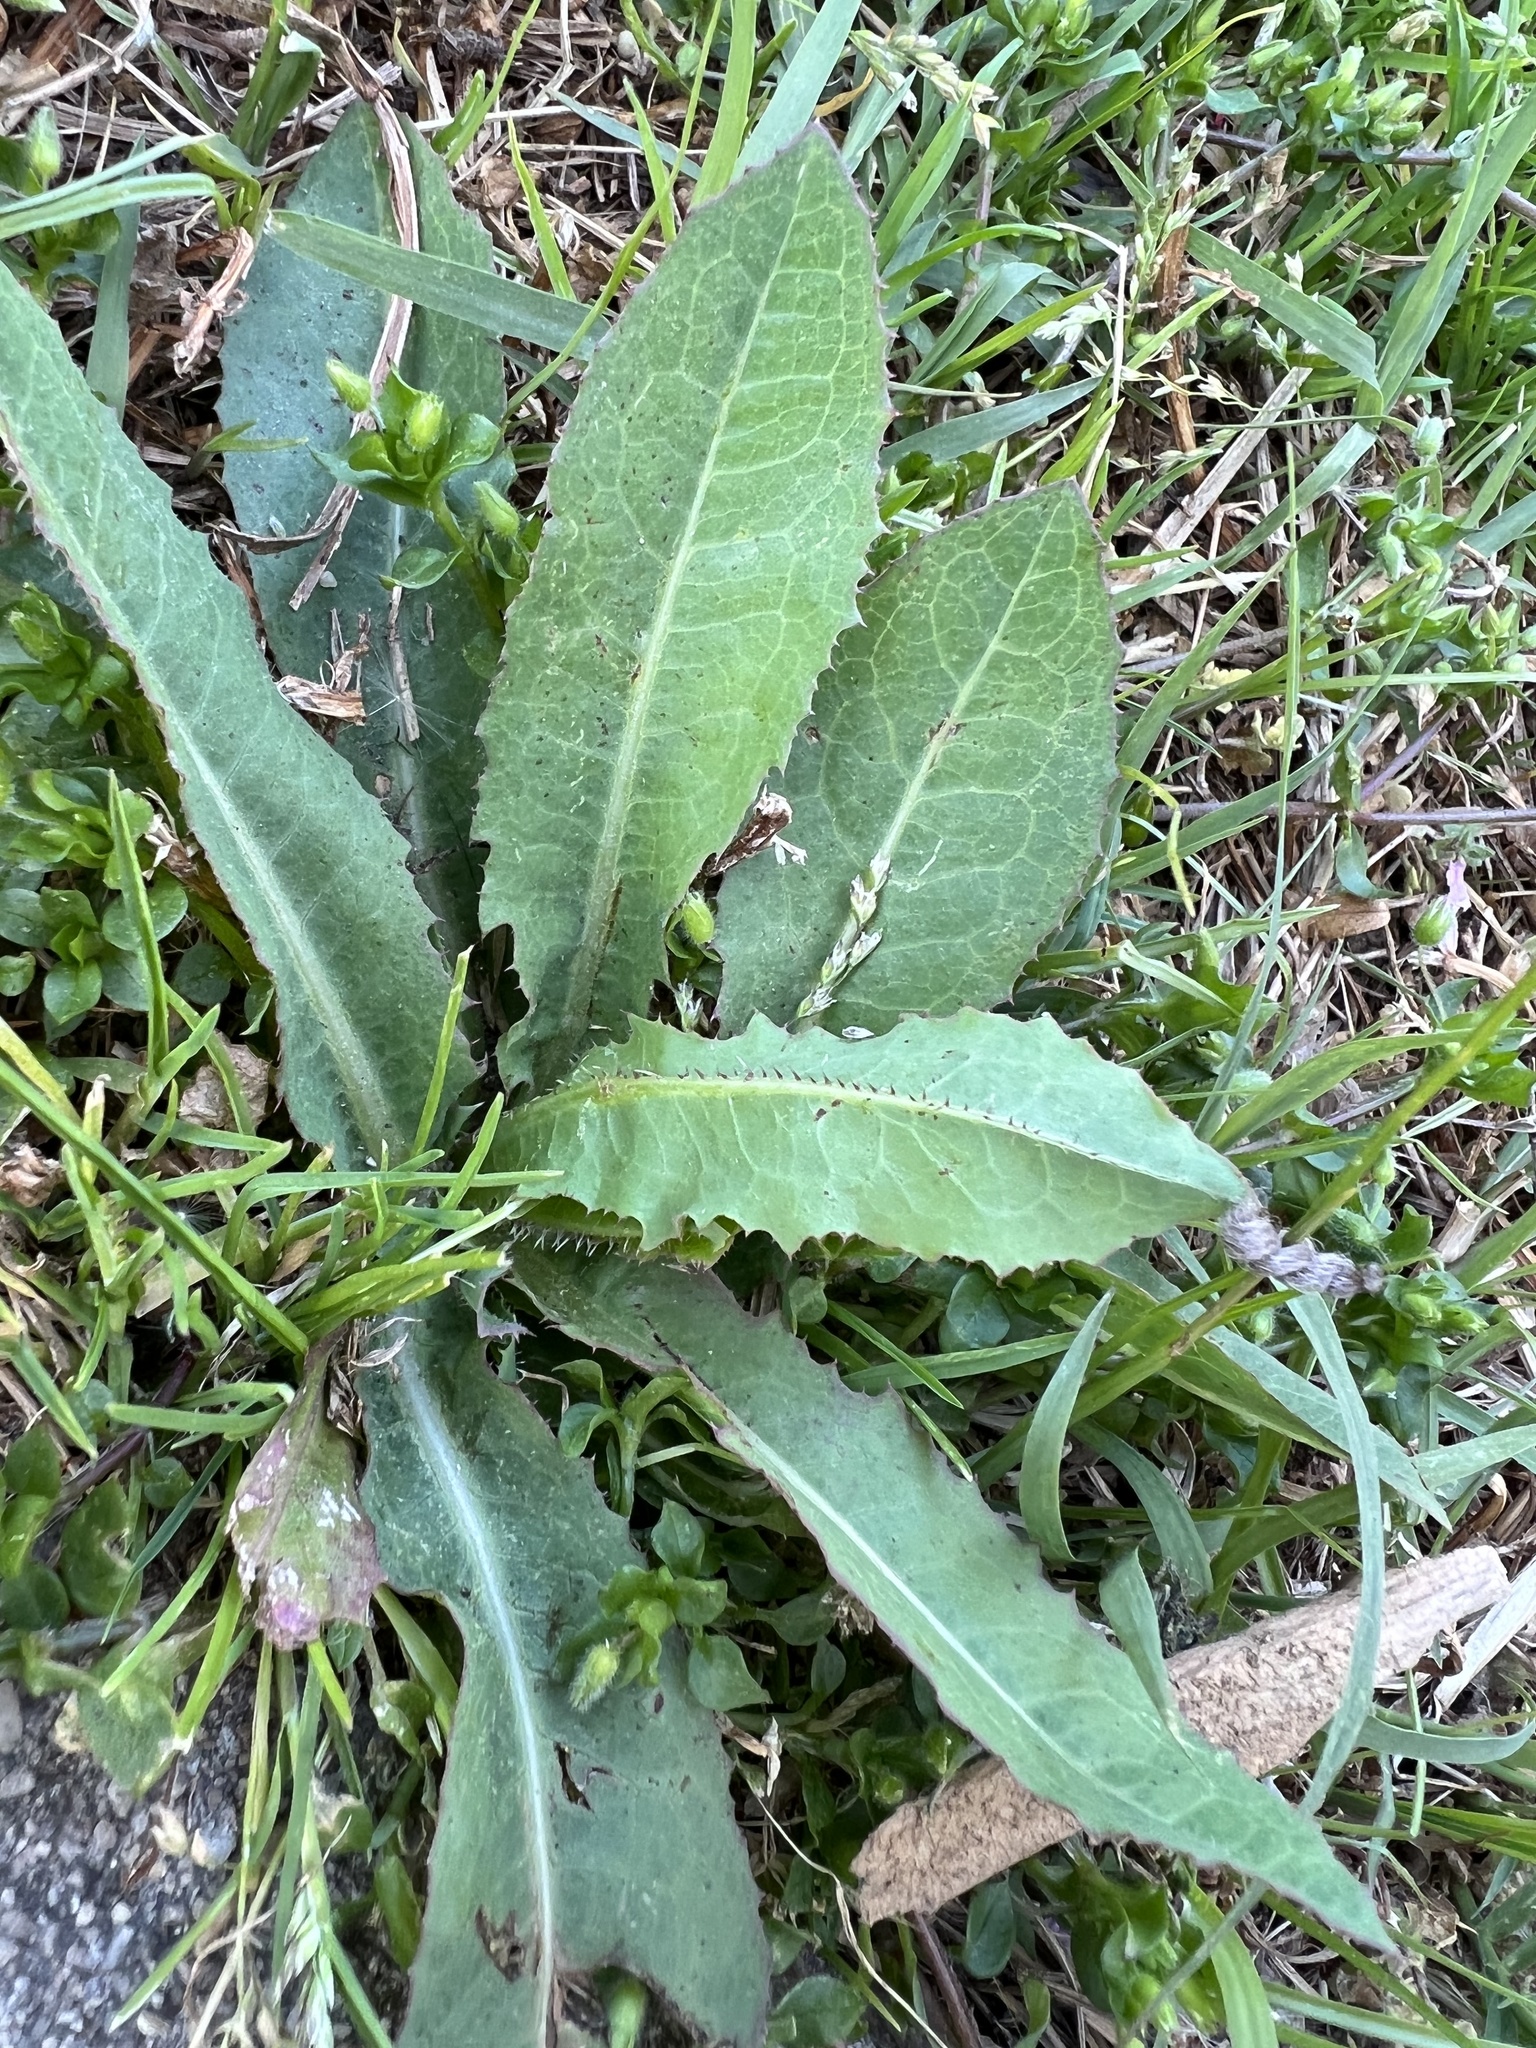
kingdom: Plantae
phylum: Tracheophyta
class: Magnoliopsida
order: Asterales
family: Asteraceae
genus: Lactuca
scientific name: Lactuca serriola
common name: Prickly lettuce
